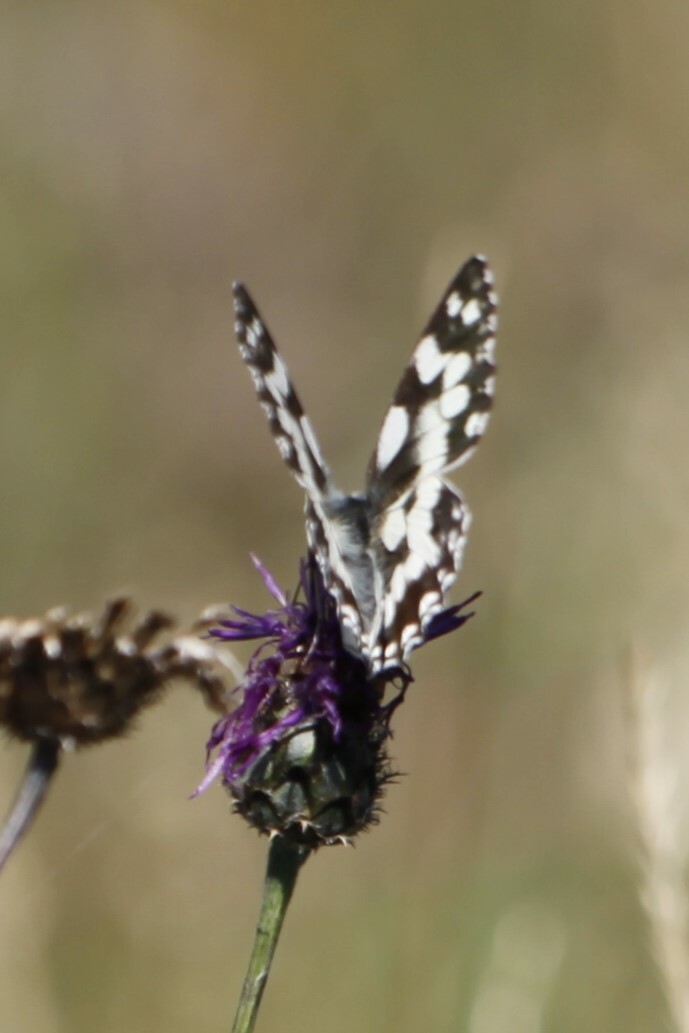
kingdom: Animalia
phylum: Arthropoda
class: Insecta
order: Lepidoptera
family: Nymphalidae
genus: Melanargia
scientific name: Melanargia galathea
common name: Marbled white
